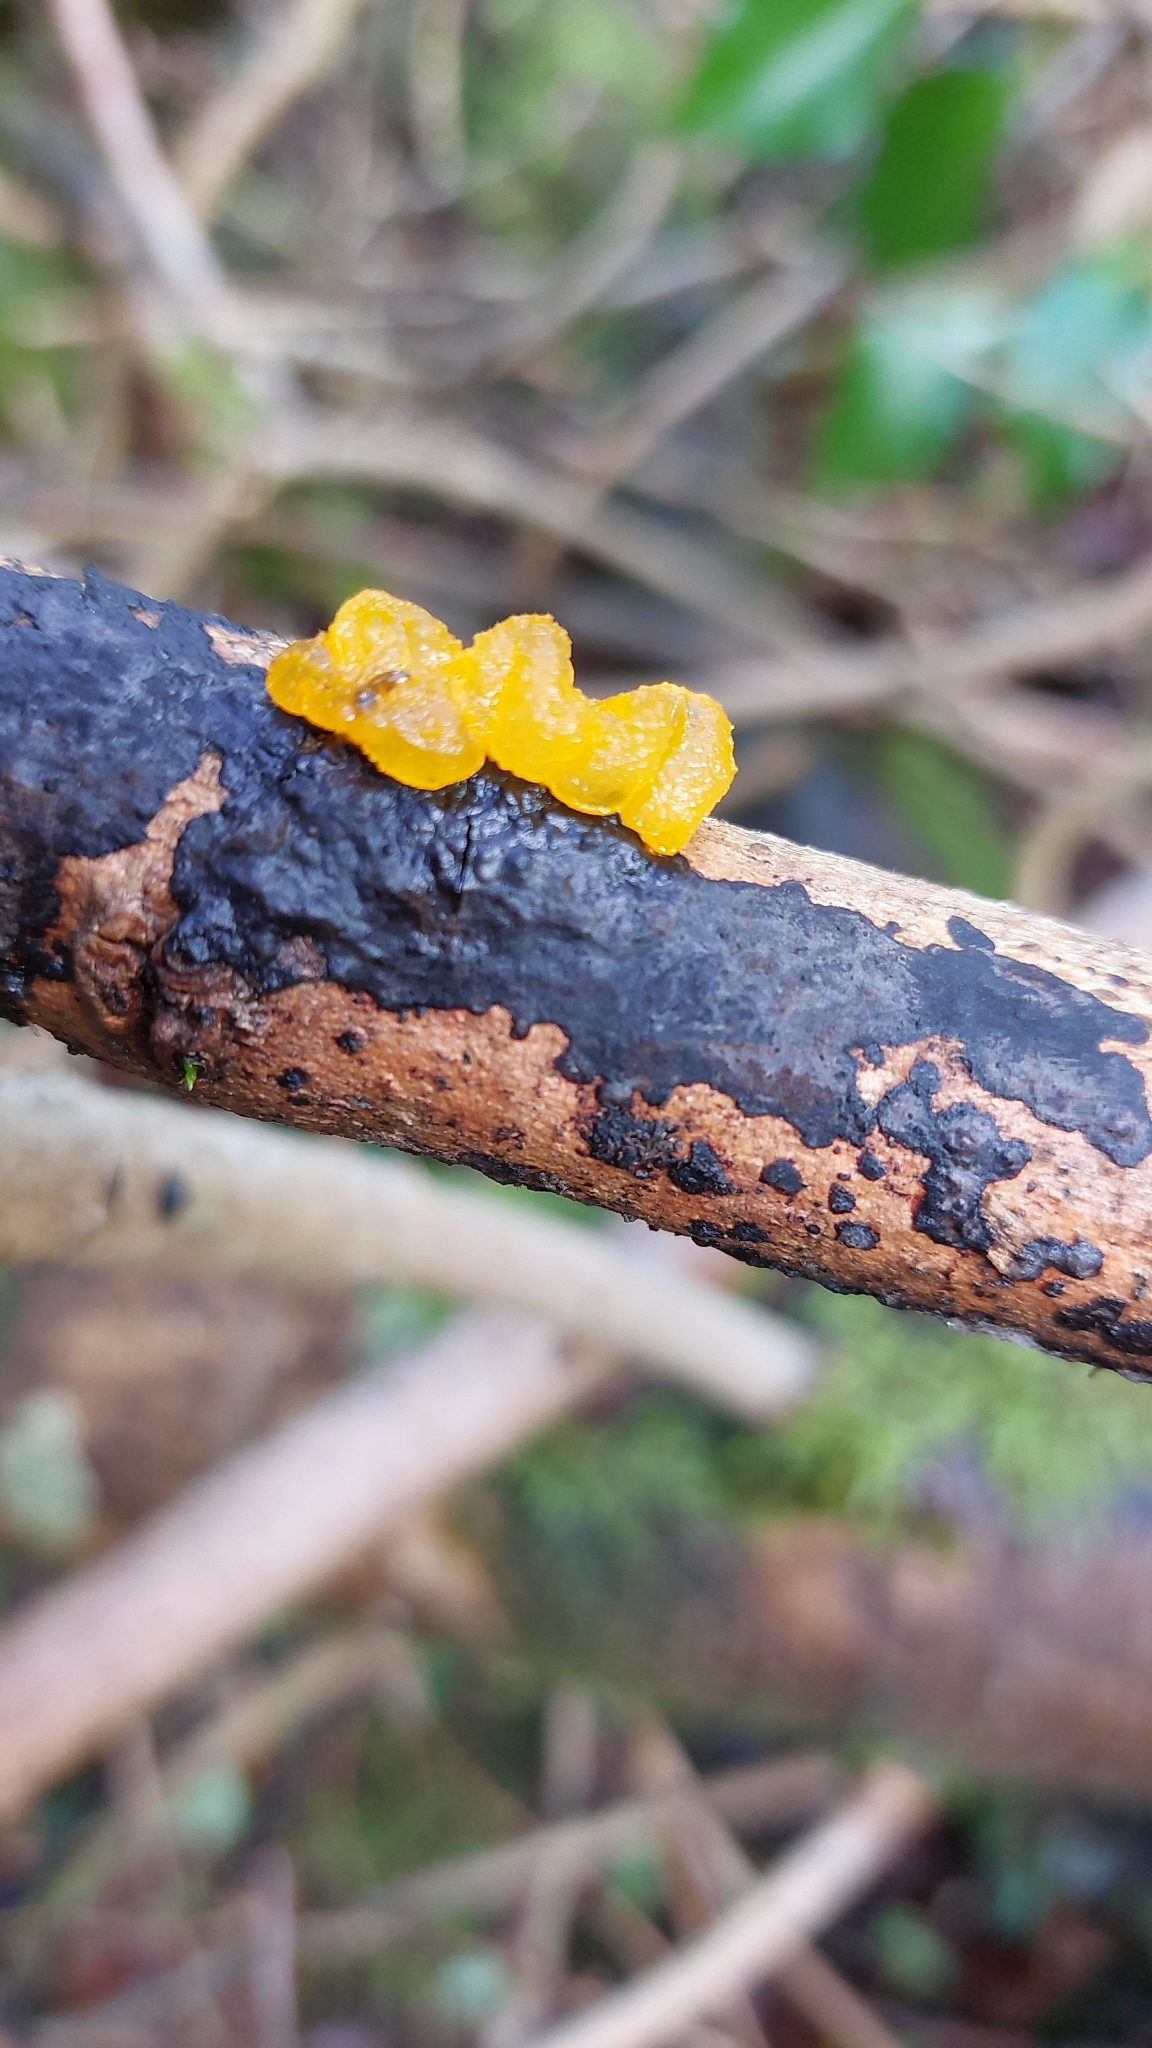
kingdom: Fungi
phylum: Basidiomycota
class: Tremellomycetes
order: Tremellales
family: Tremellaceae
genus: Tremella
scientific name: Tremella mesenterica
